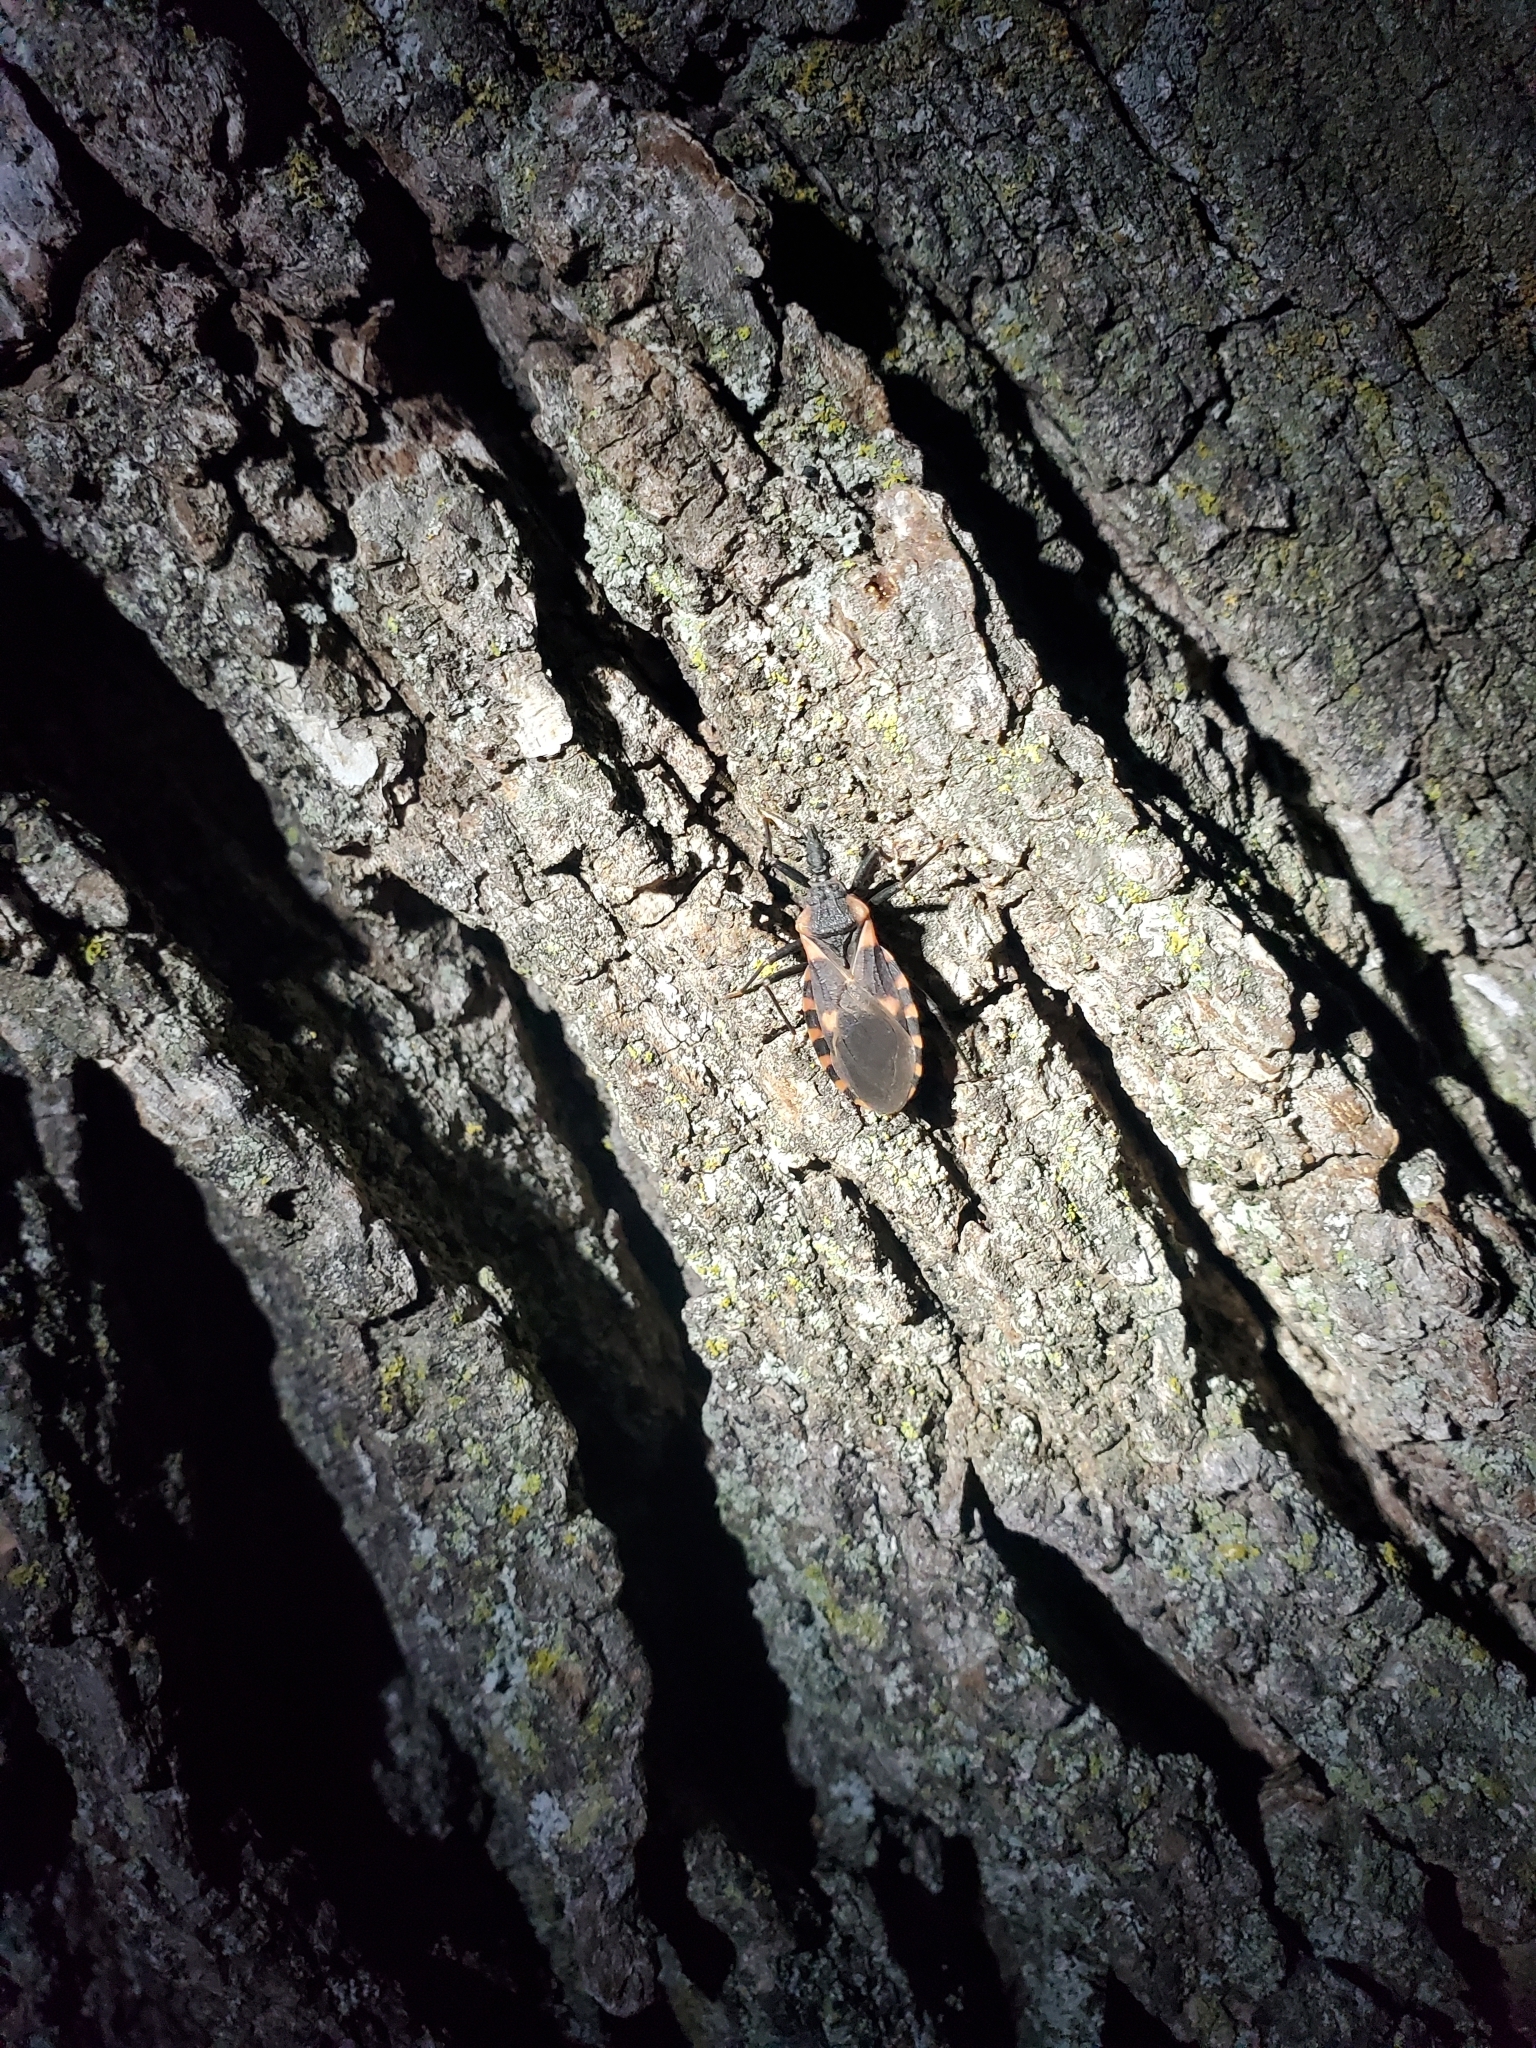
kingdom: Animalia
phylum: Arthropoda
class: Insecta
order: Hemiptera
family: Reduviidae
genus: Triatoma
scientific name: Triatoma sanguisuga
